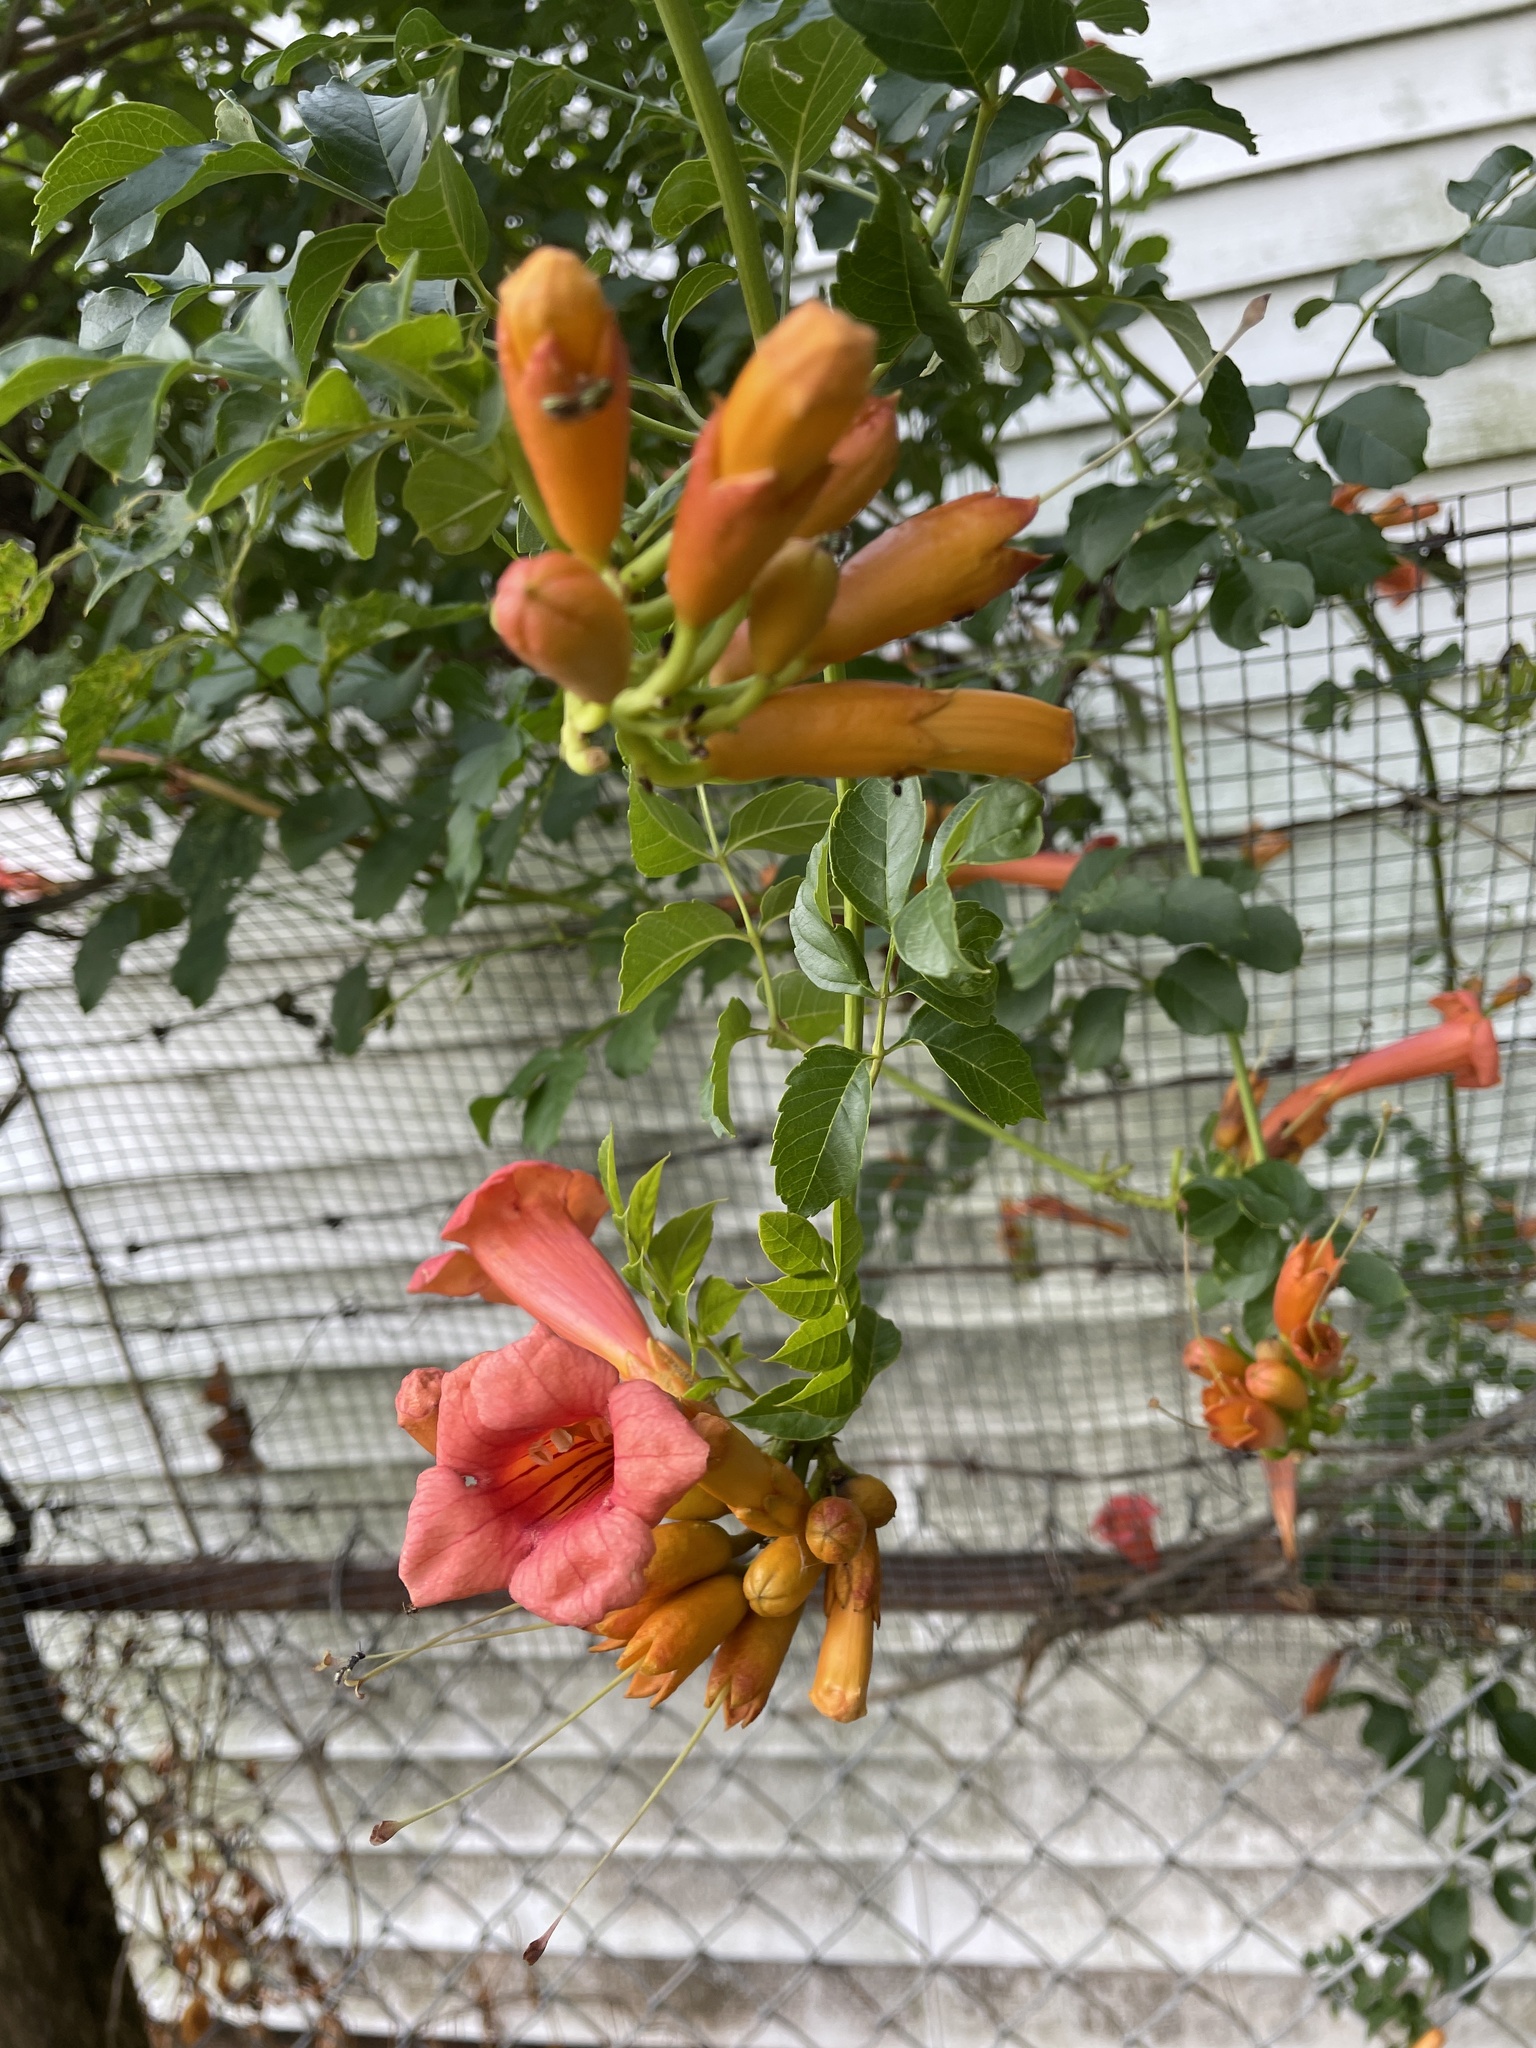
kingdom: Plantae
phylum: Tracheophyta
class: Magnoliopsida
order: Lamiales
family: Bignoniaceae
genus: Campsis
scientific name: Campsis radicans
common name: Trumpet-creeper
